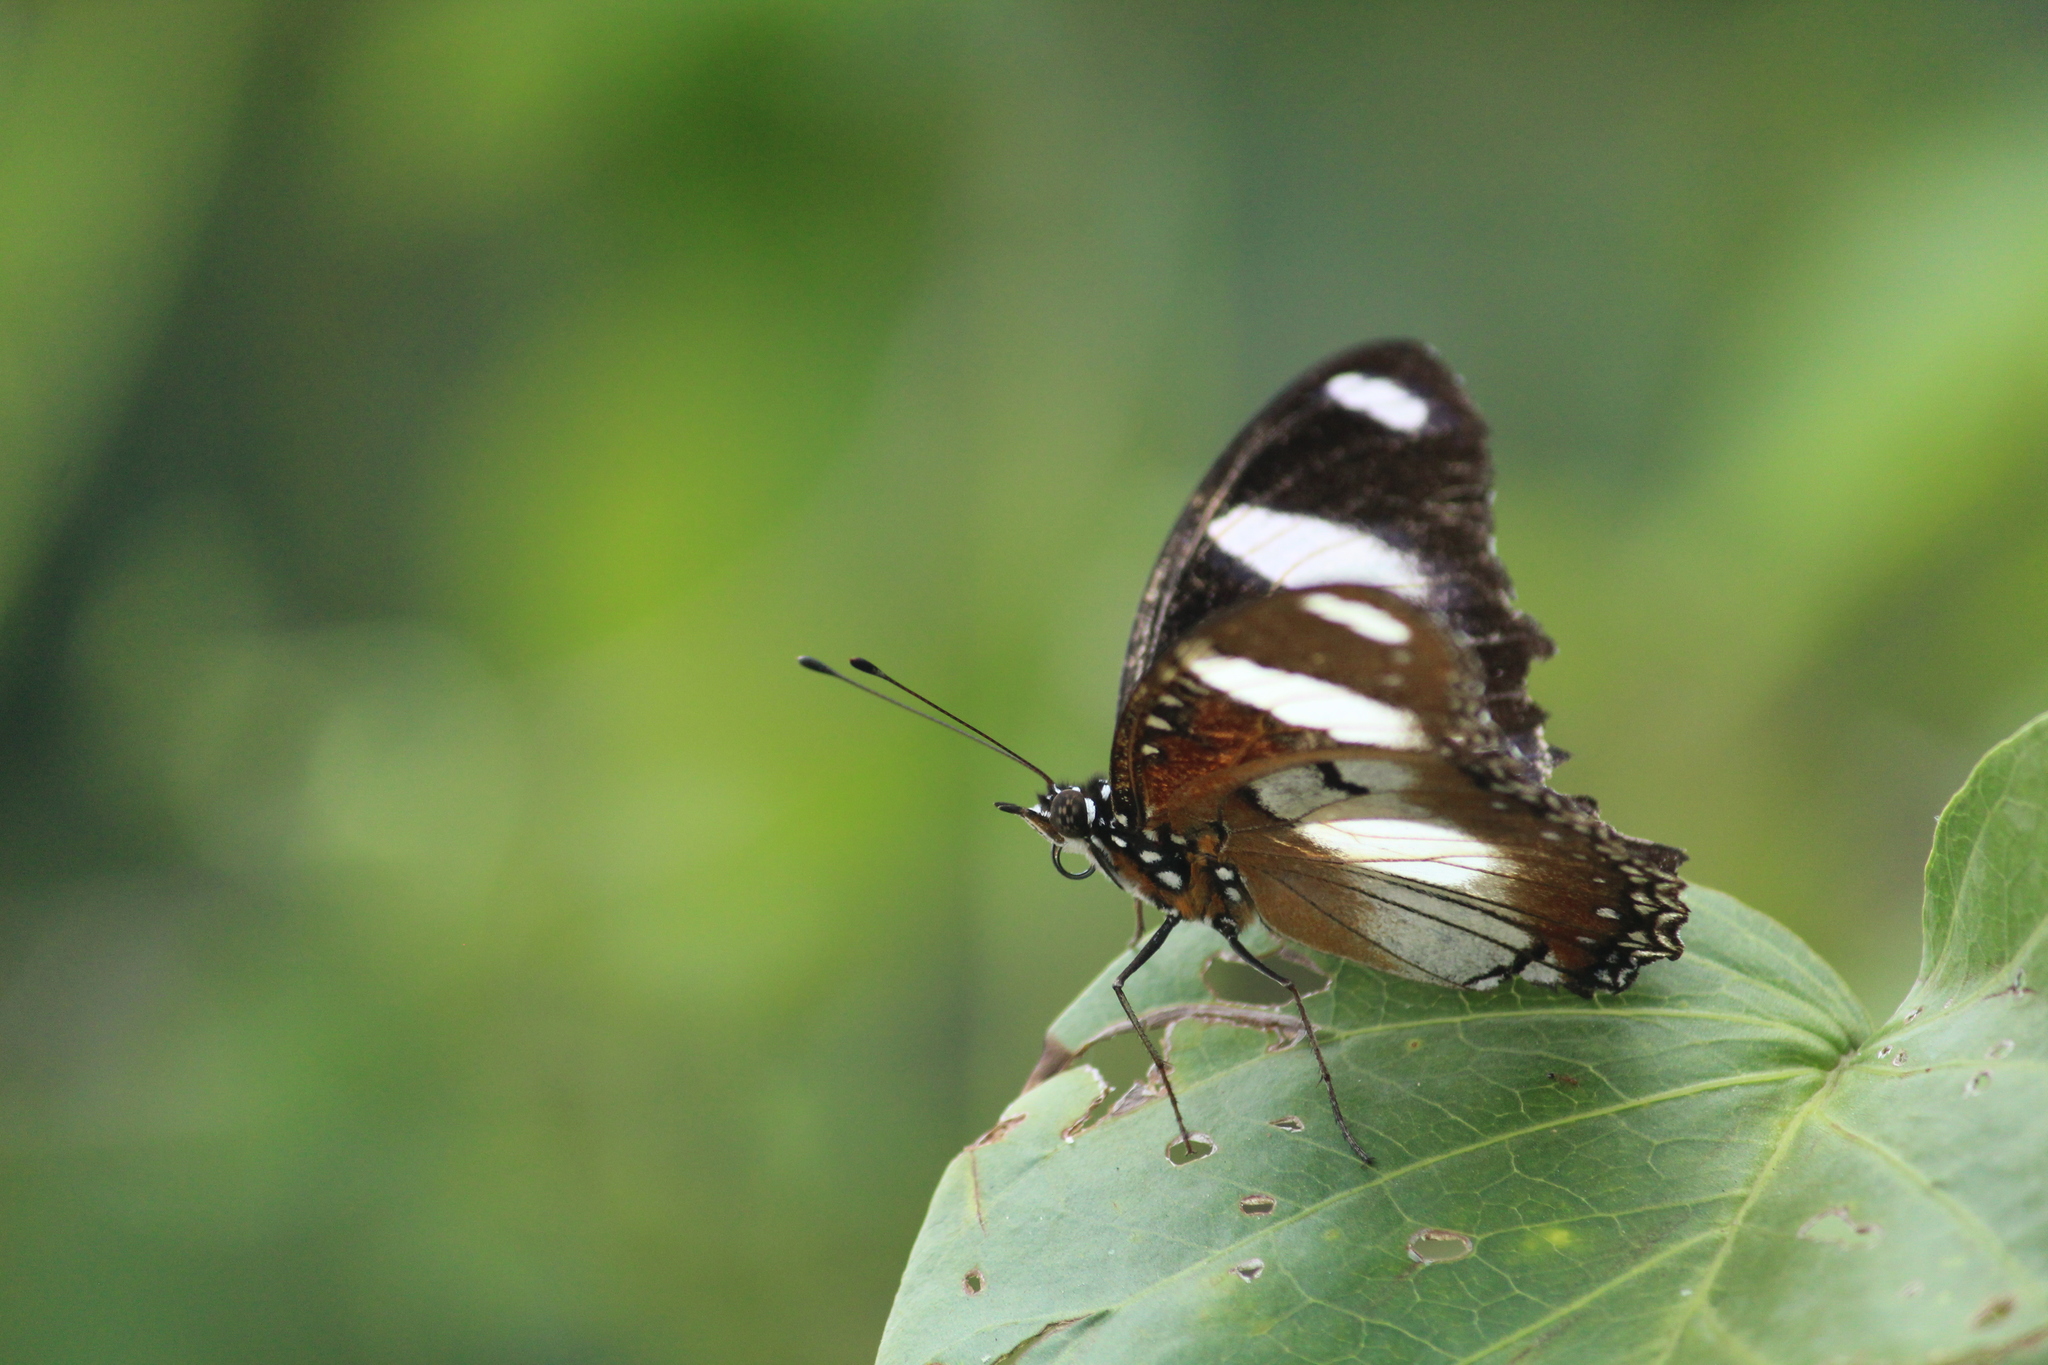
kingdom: Animalia
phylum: Arthropoda
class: Insecta
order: Lepidoptera
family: Nymphalidae
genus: Hypolimnas
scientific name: Hypolimnas misippus
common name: False plain tiger
